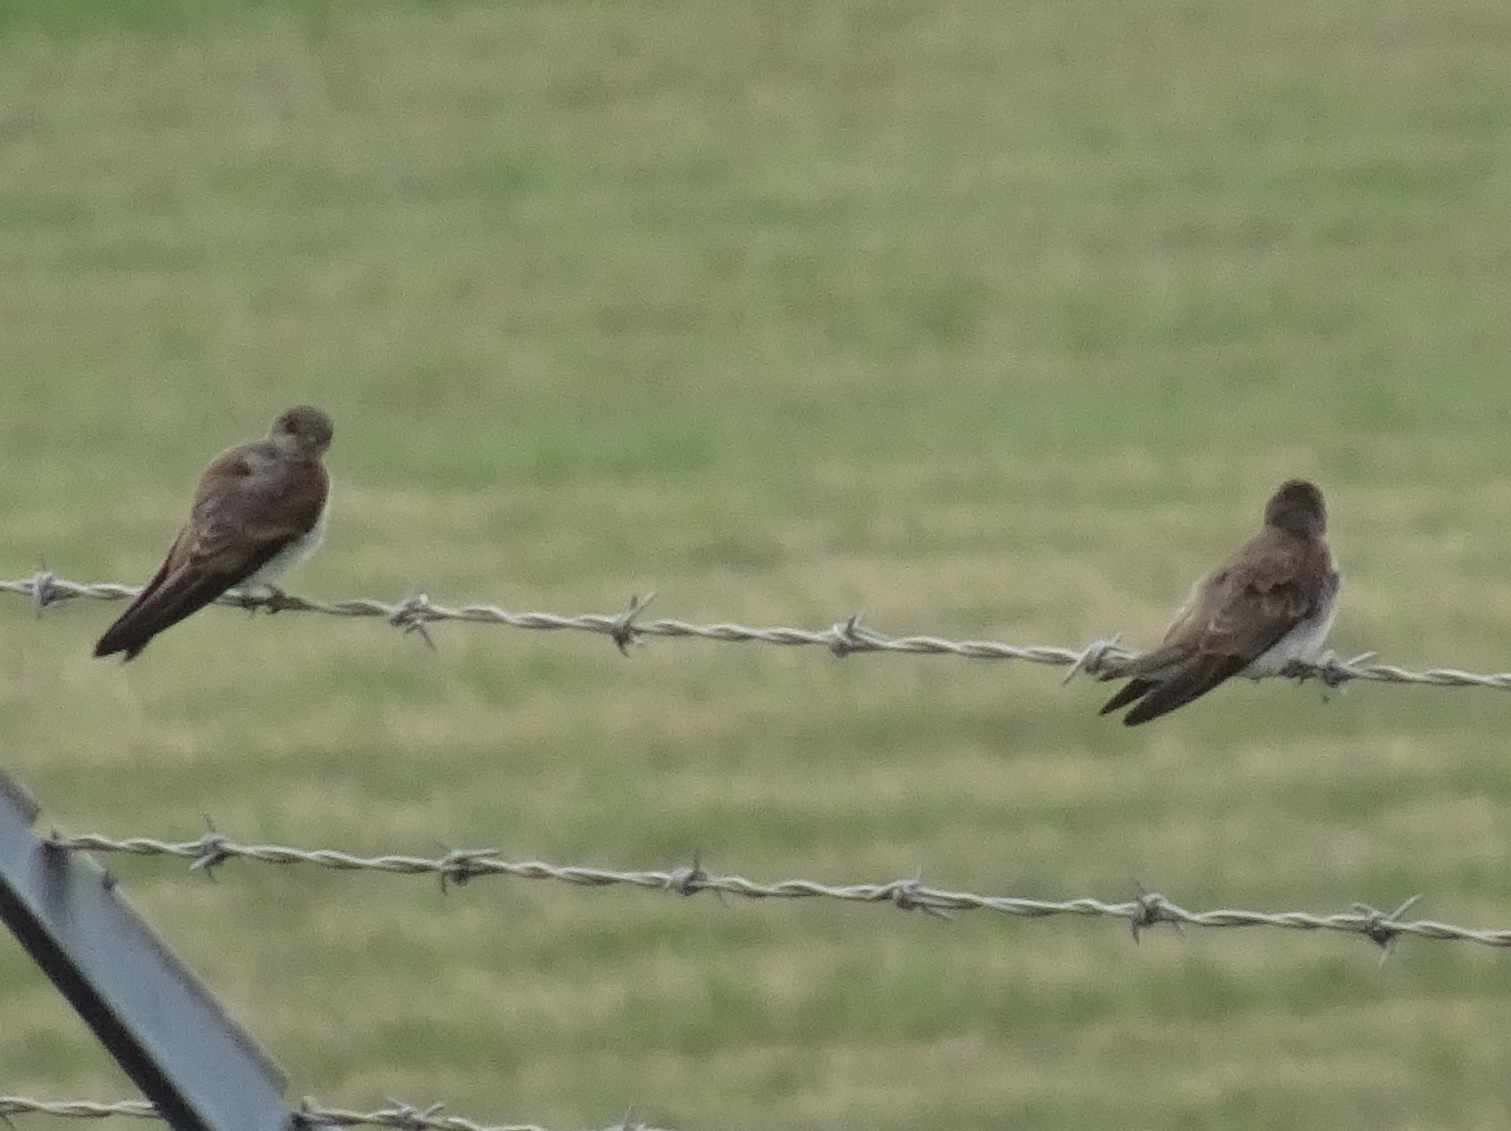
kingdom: Animalia
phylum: Chordata
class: Aves
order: Passeriformes
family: Hirundinidae
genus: Stelgidopteryx
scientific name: Stelgidopteryx serripennis
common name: Northern rough-winged swallow
